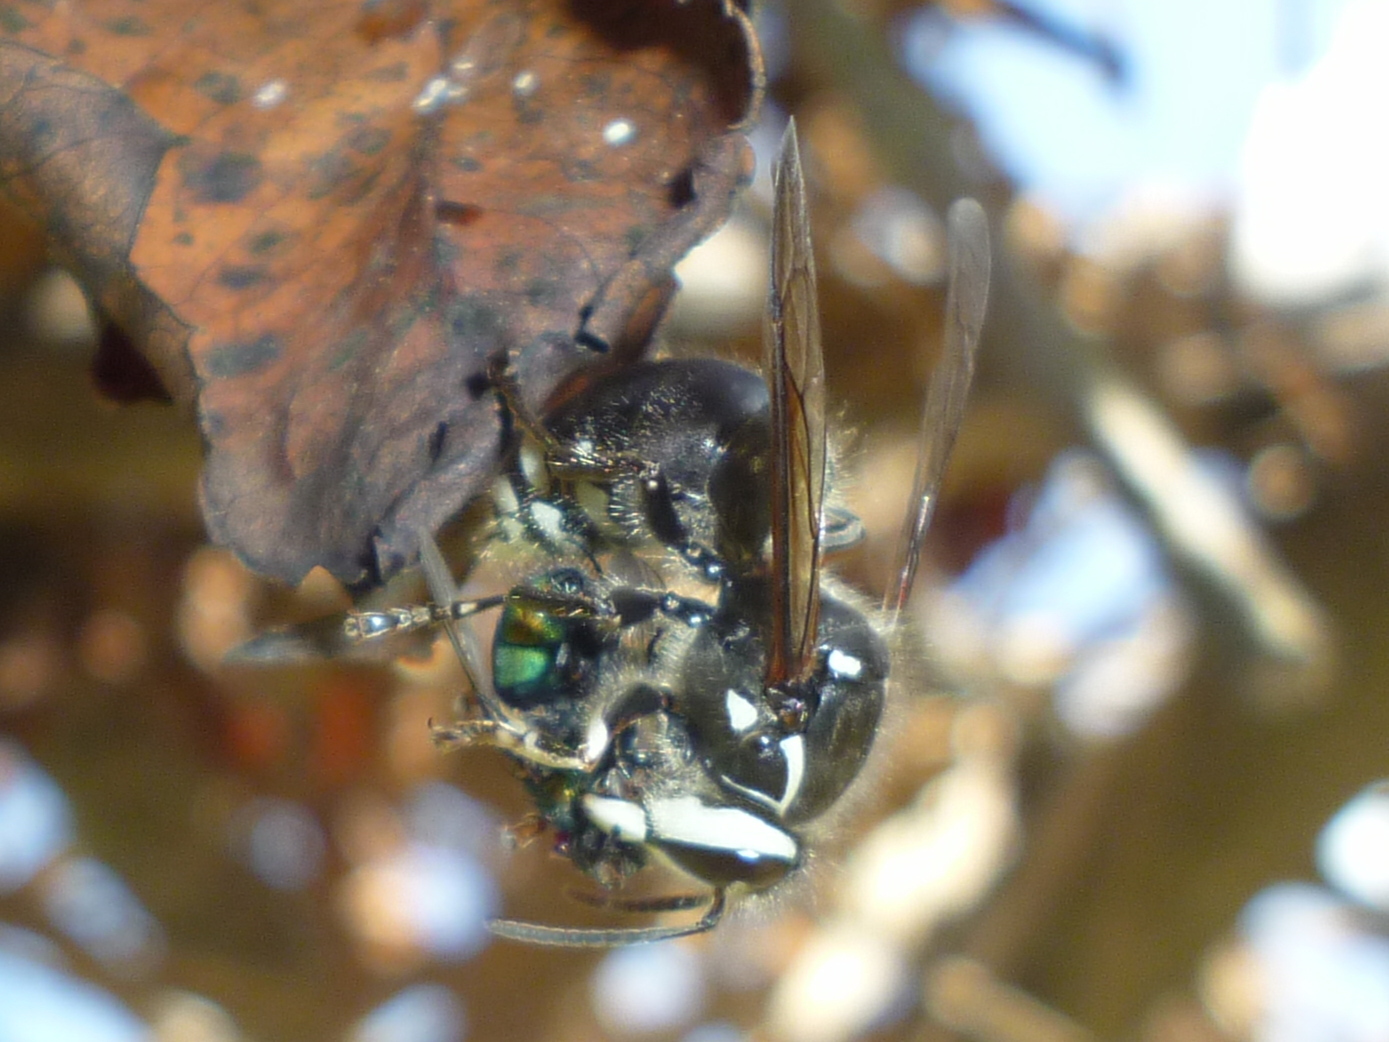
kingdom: Animalia
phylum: Arthropoda
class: Insecta
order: Hymenoptera
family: Vespidae
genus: Dolichovespula
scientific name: Dolichovespula maculata
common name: Bald-faced hornet
